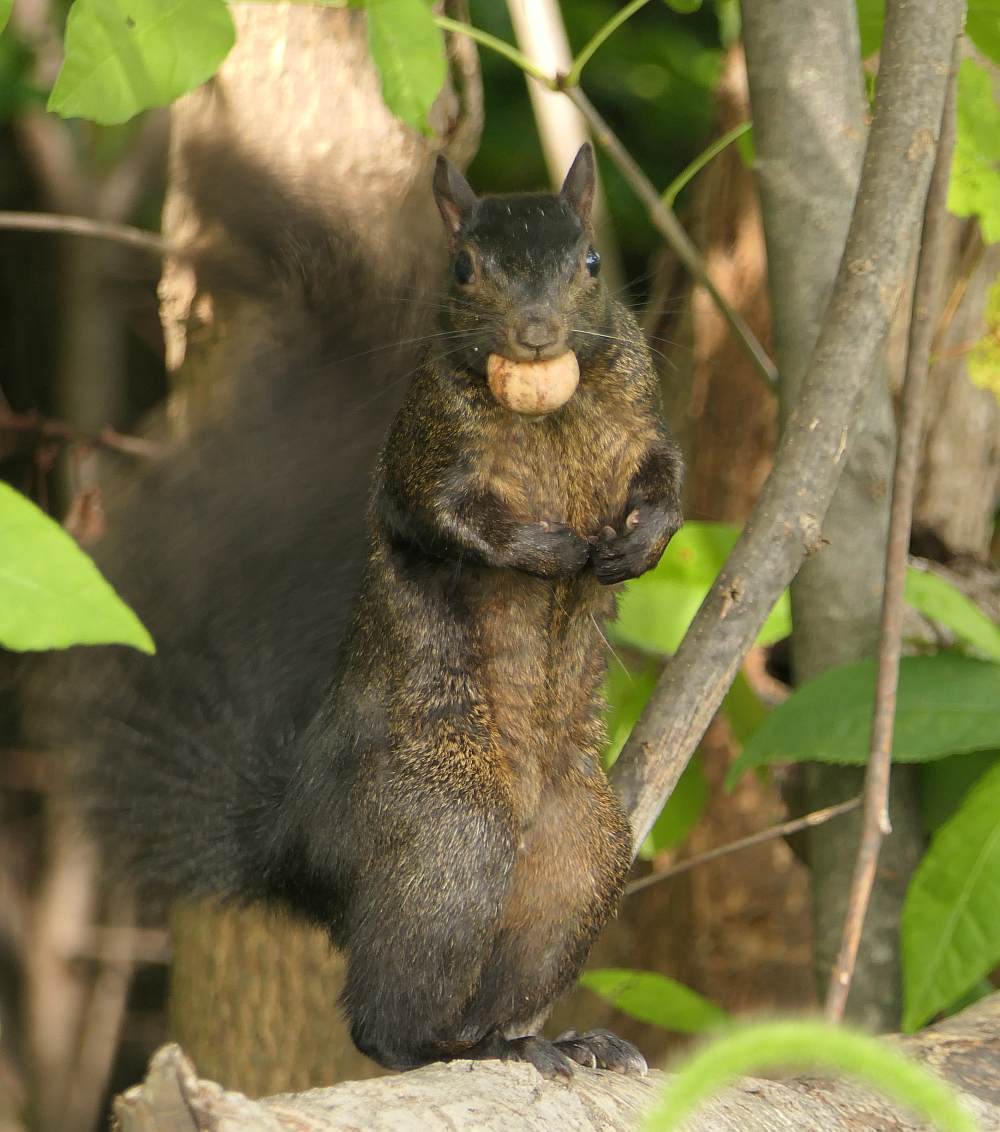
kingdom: Animalia
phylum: Chordata
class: Mammalia
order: Rodentia
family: Sciuridae
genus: Sciurus
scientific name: Sciurus carolinensis
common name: Eastern gray squirrel
